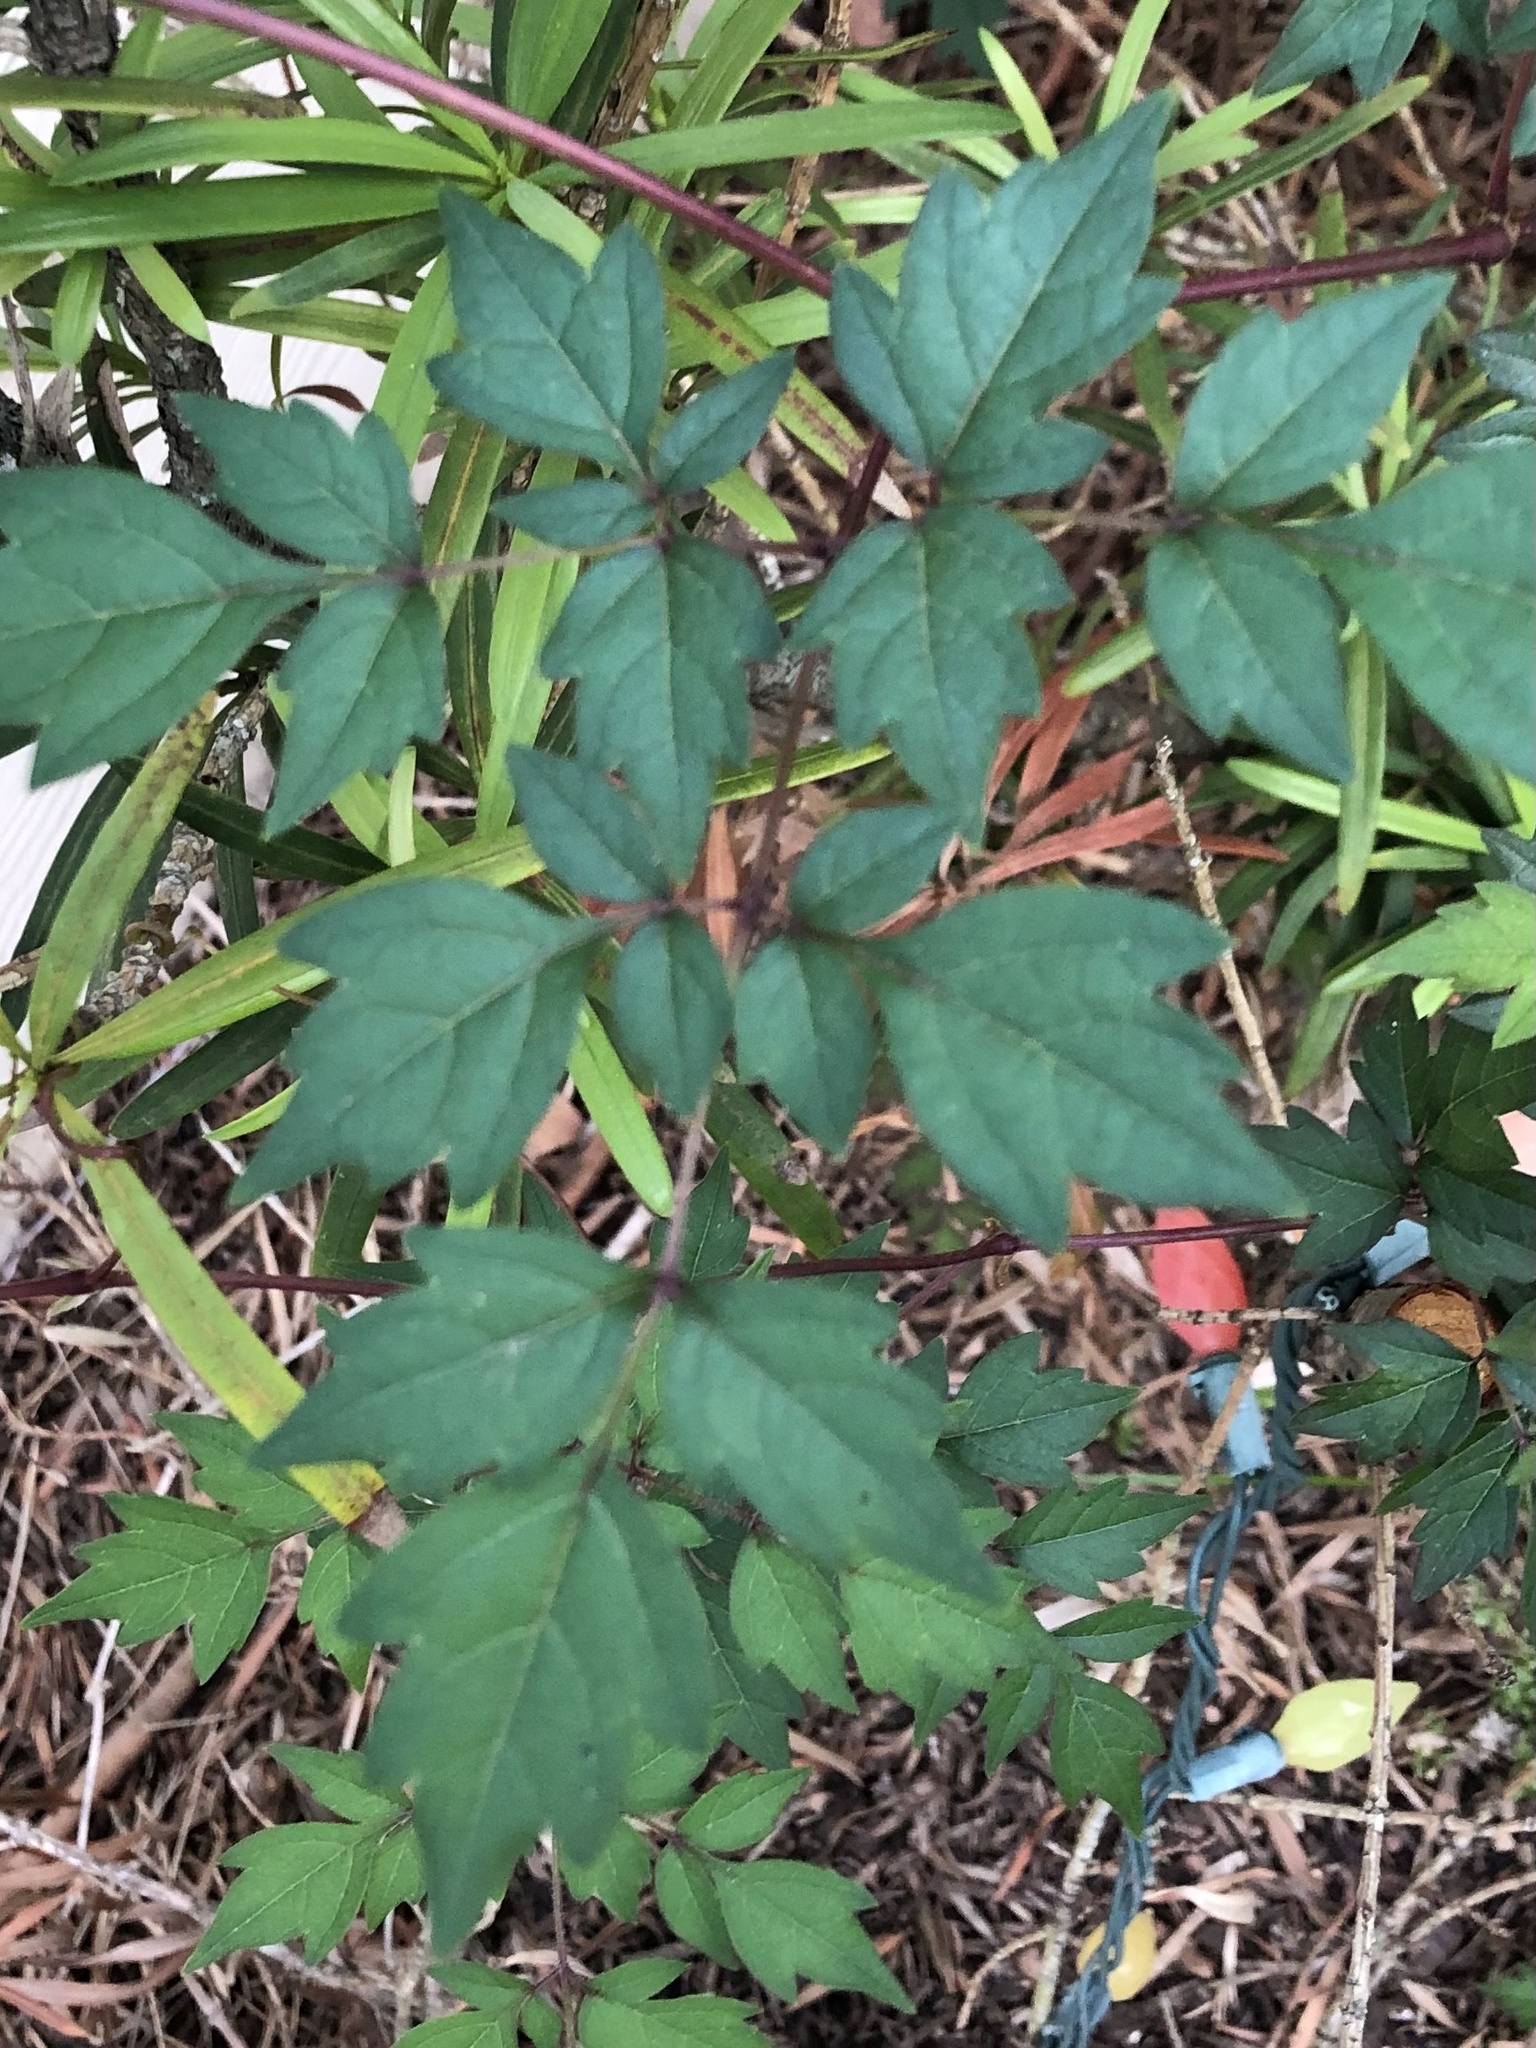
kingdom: Plantae
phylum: Tracheophyta
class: Magnoliopsida
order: Vitales
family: Vitaceae
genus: Nekemias
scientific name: Nekemias arborea
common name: Peppervine
